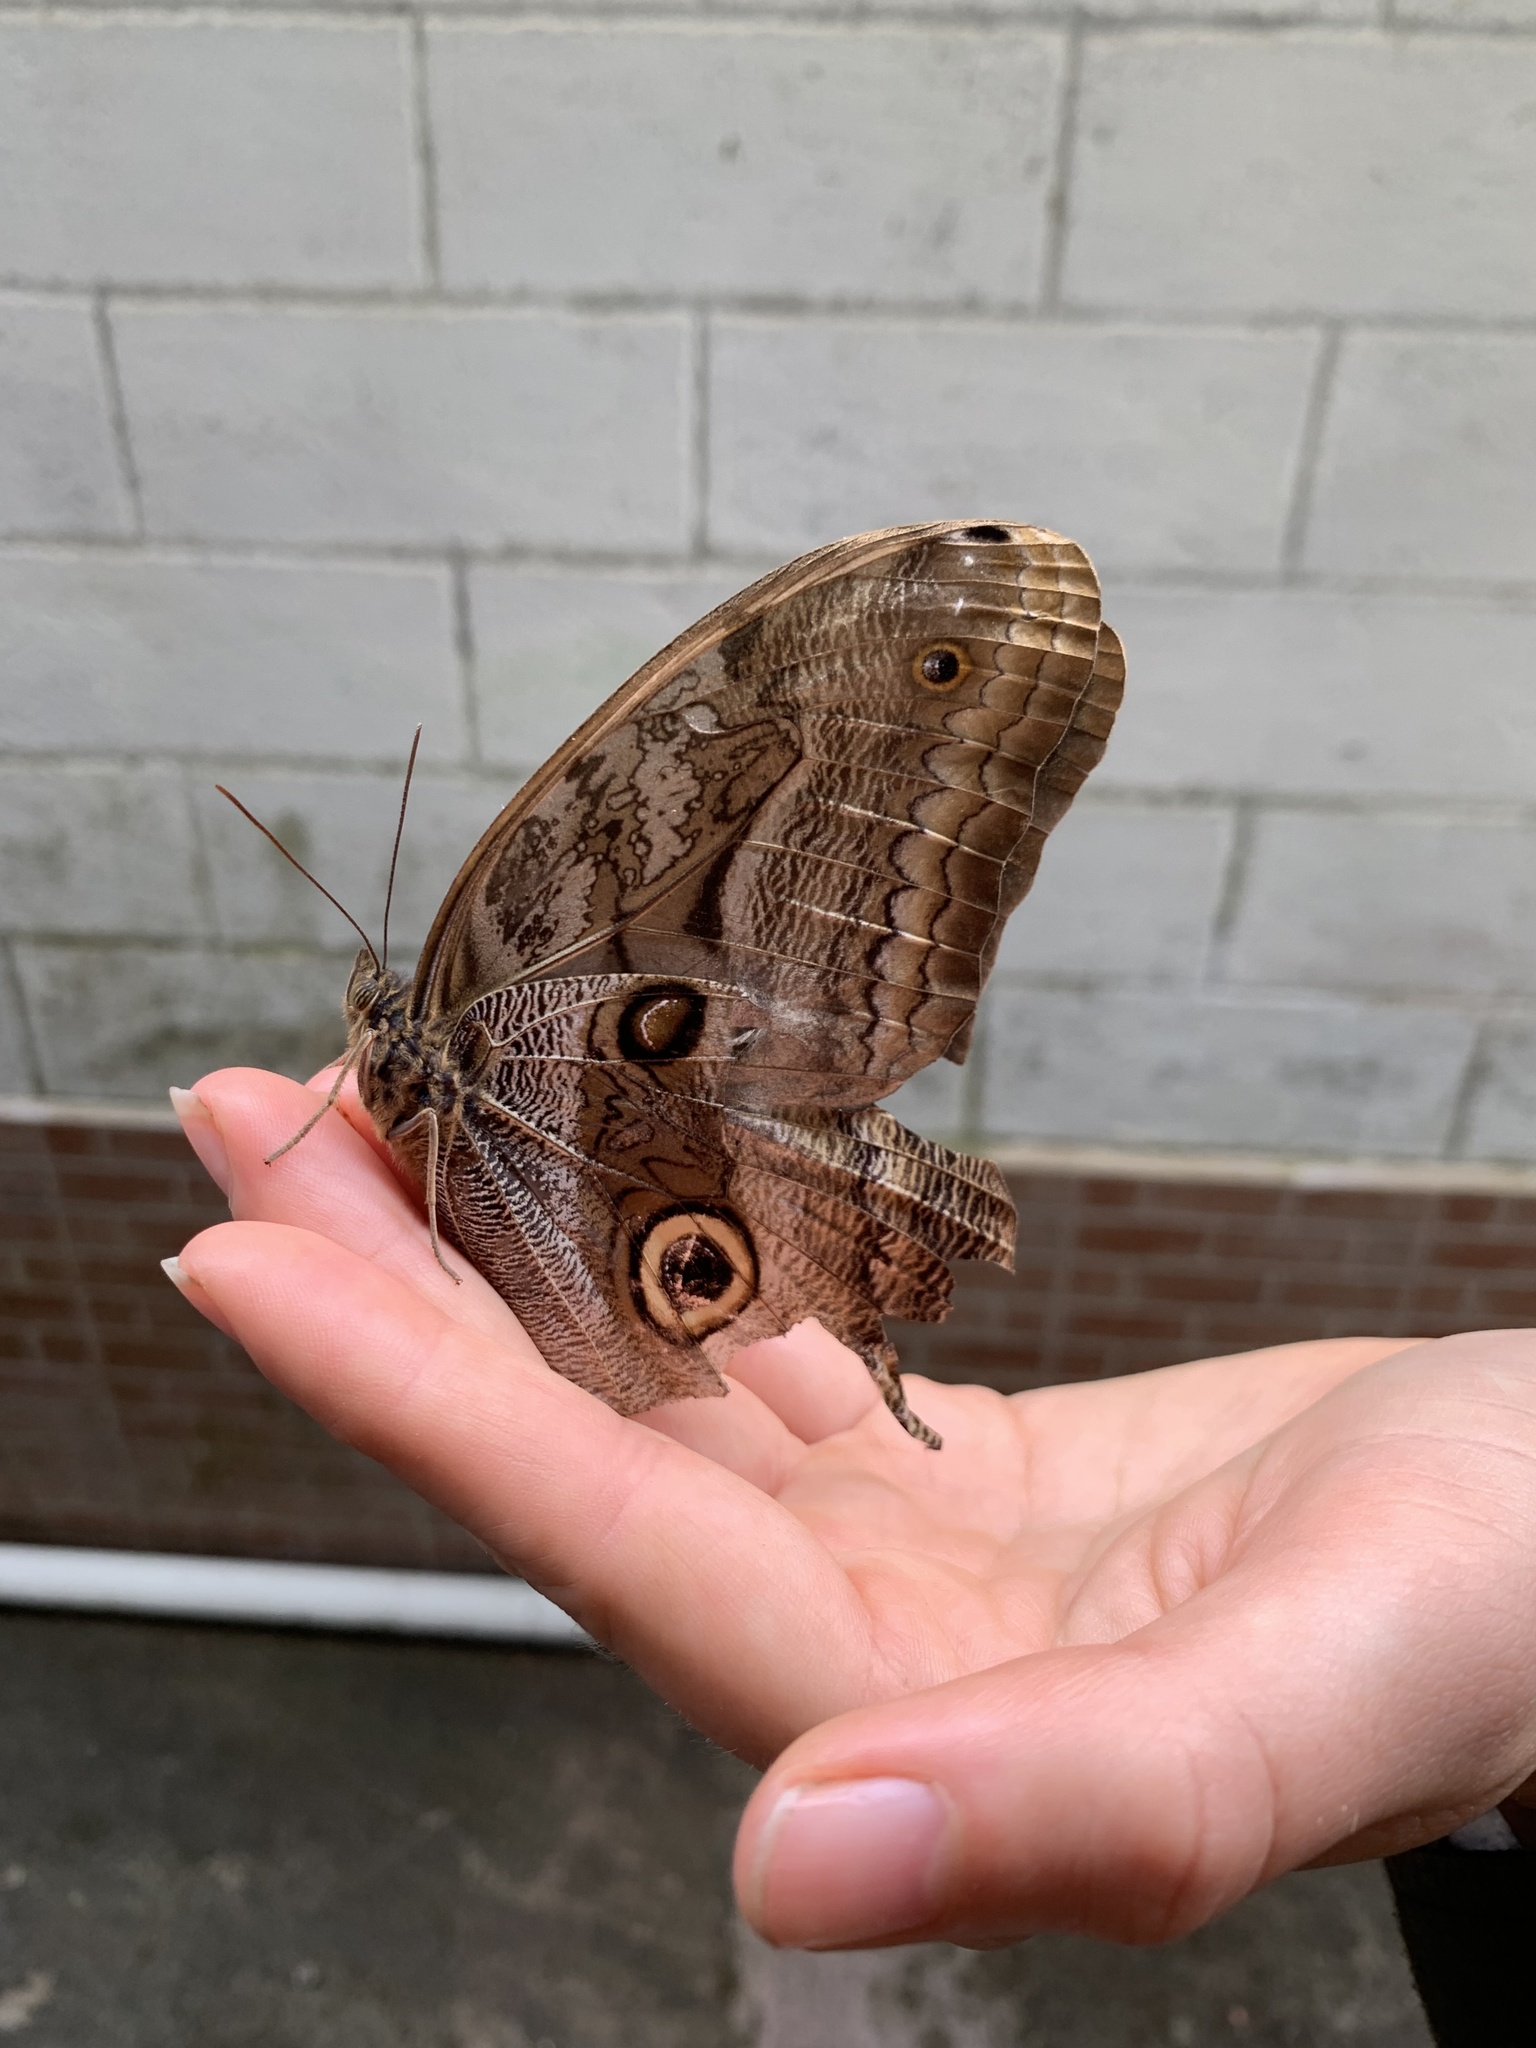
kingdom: Animalia
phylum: Arthropoda
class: Insecta
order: Lepidoptera
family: Nymphalidae
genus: Caligo
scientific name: Caligo zeuxippus
